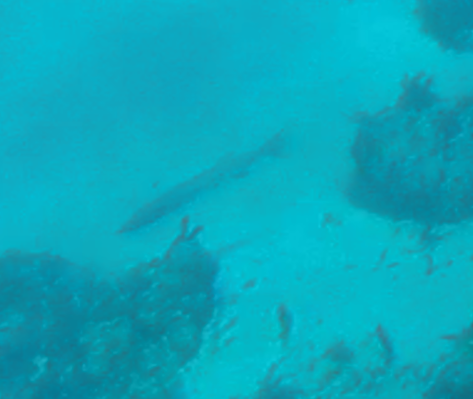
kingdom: Animalia
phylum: Chordata
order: Perciformes
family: Sphyraenidae
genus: Sphyraena
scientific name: Sphyraena barracuda
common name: Great barracuda
